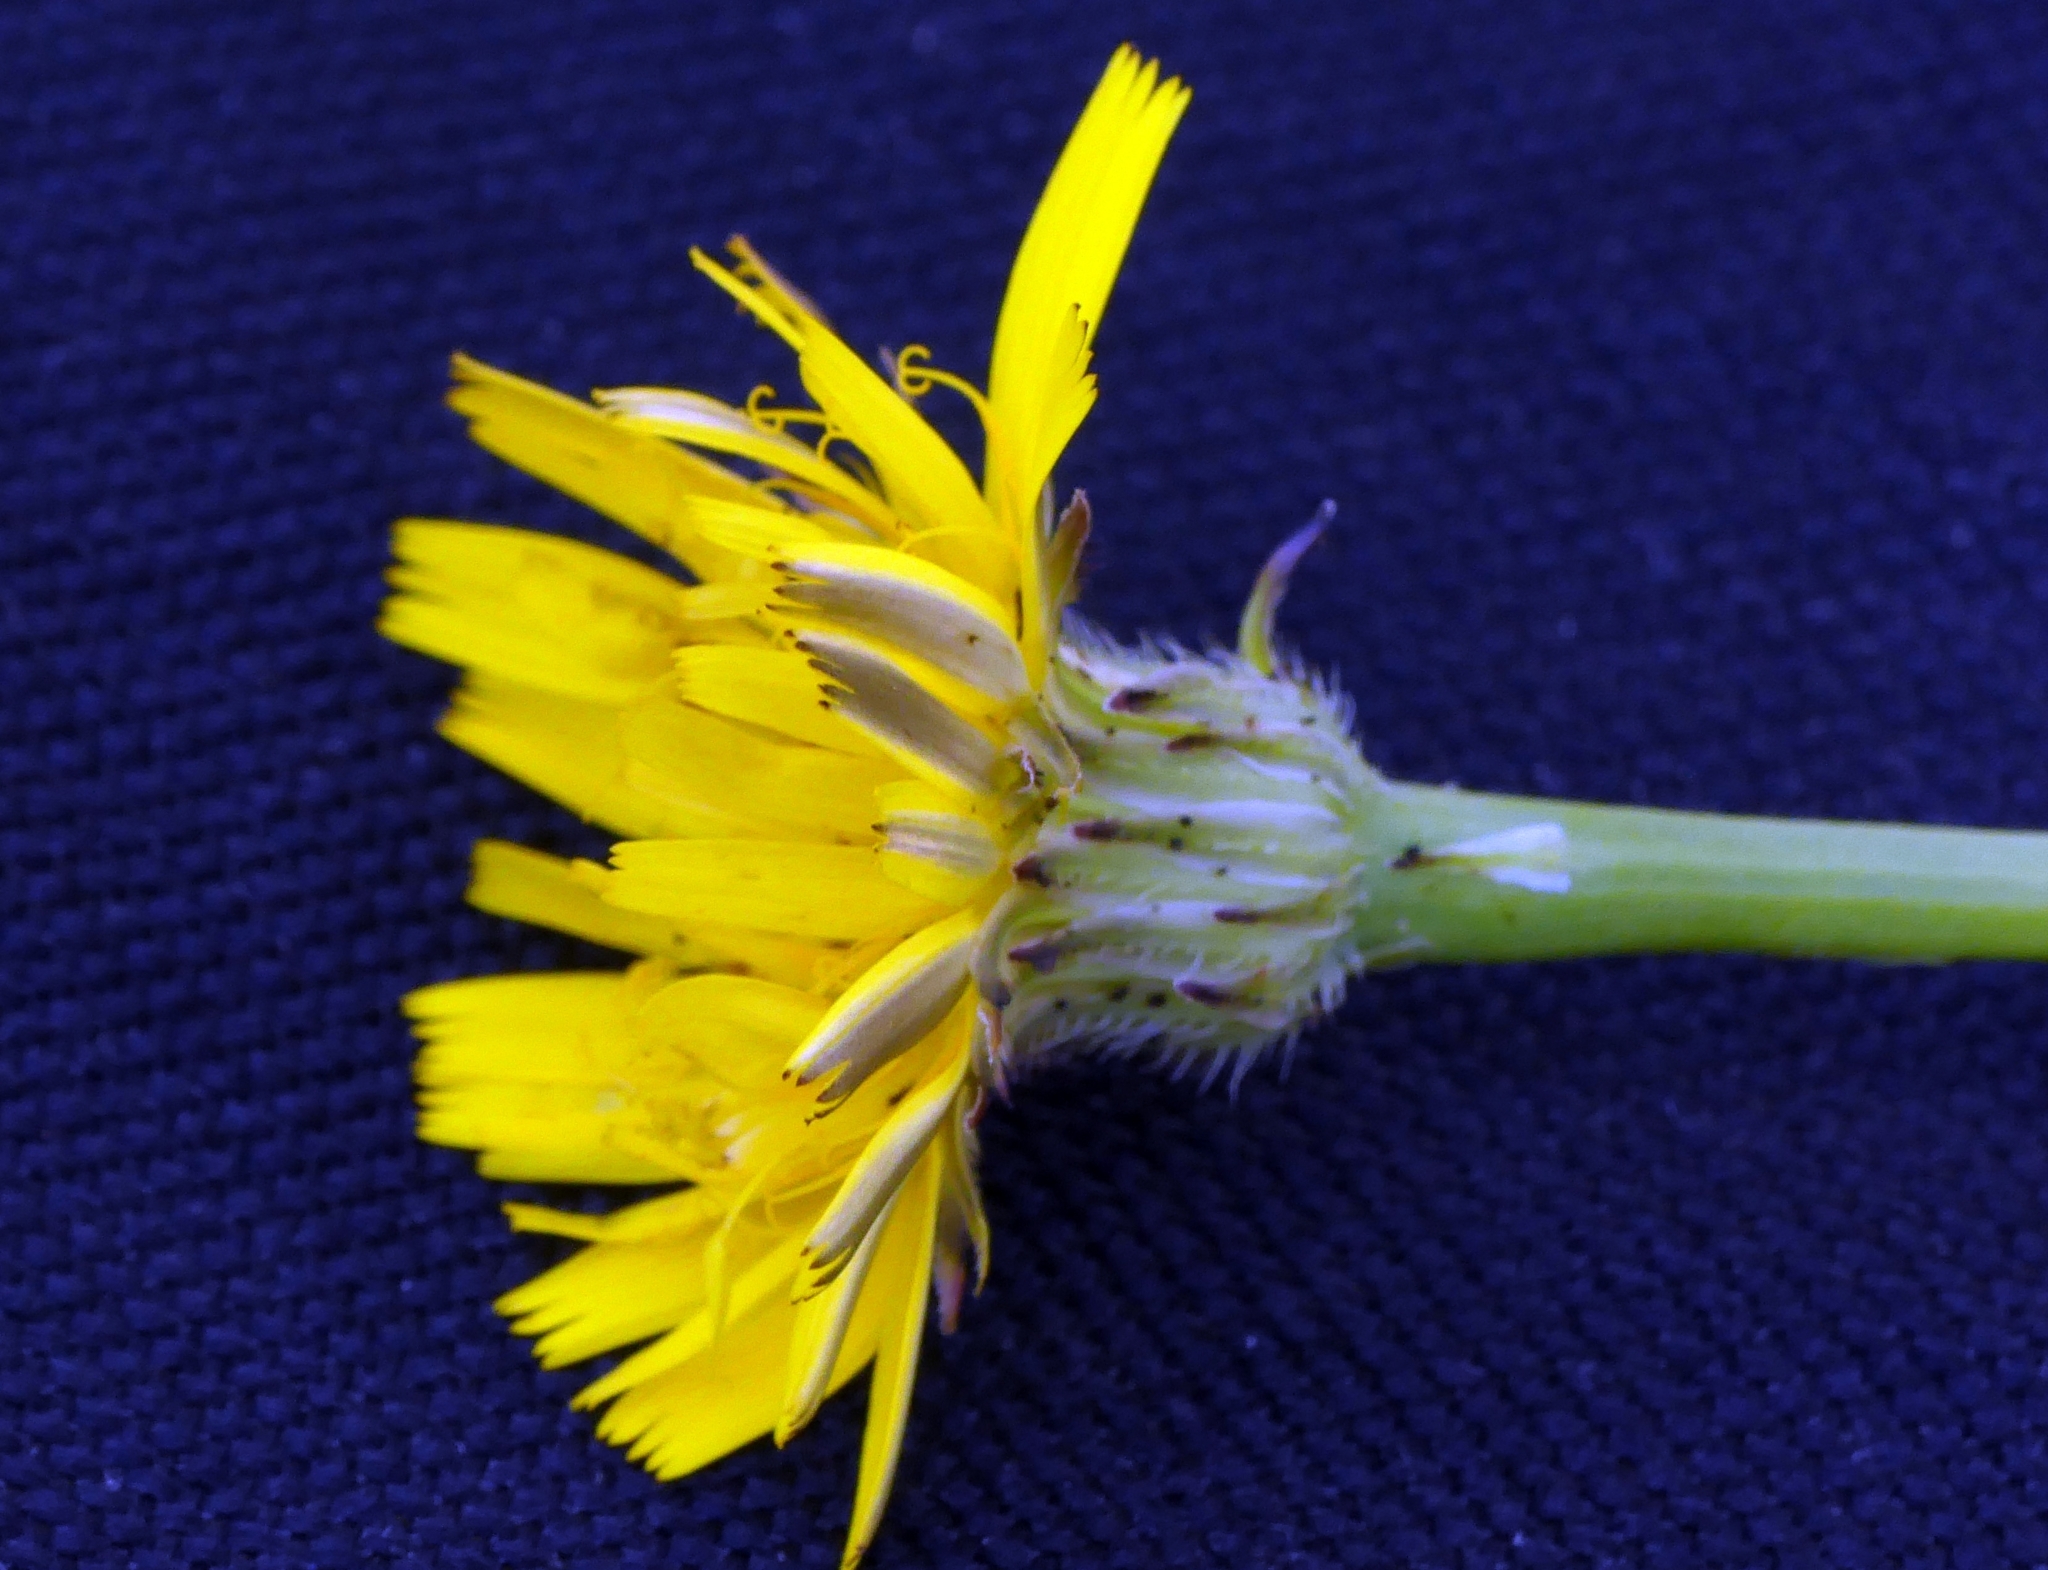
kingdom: Plantae
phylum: Tracheophyta
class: Magnoliopsida
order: Asterales
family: Asteraceae
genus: Hypochaeris
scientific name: Hypochaeris radicata
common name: Flatweed
